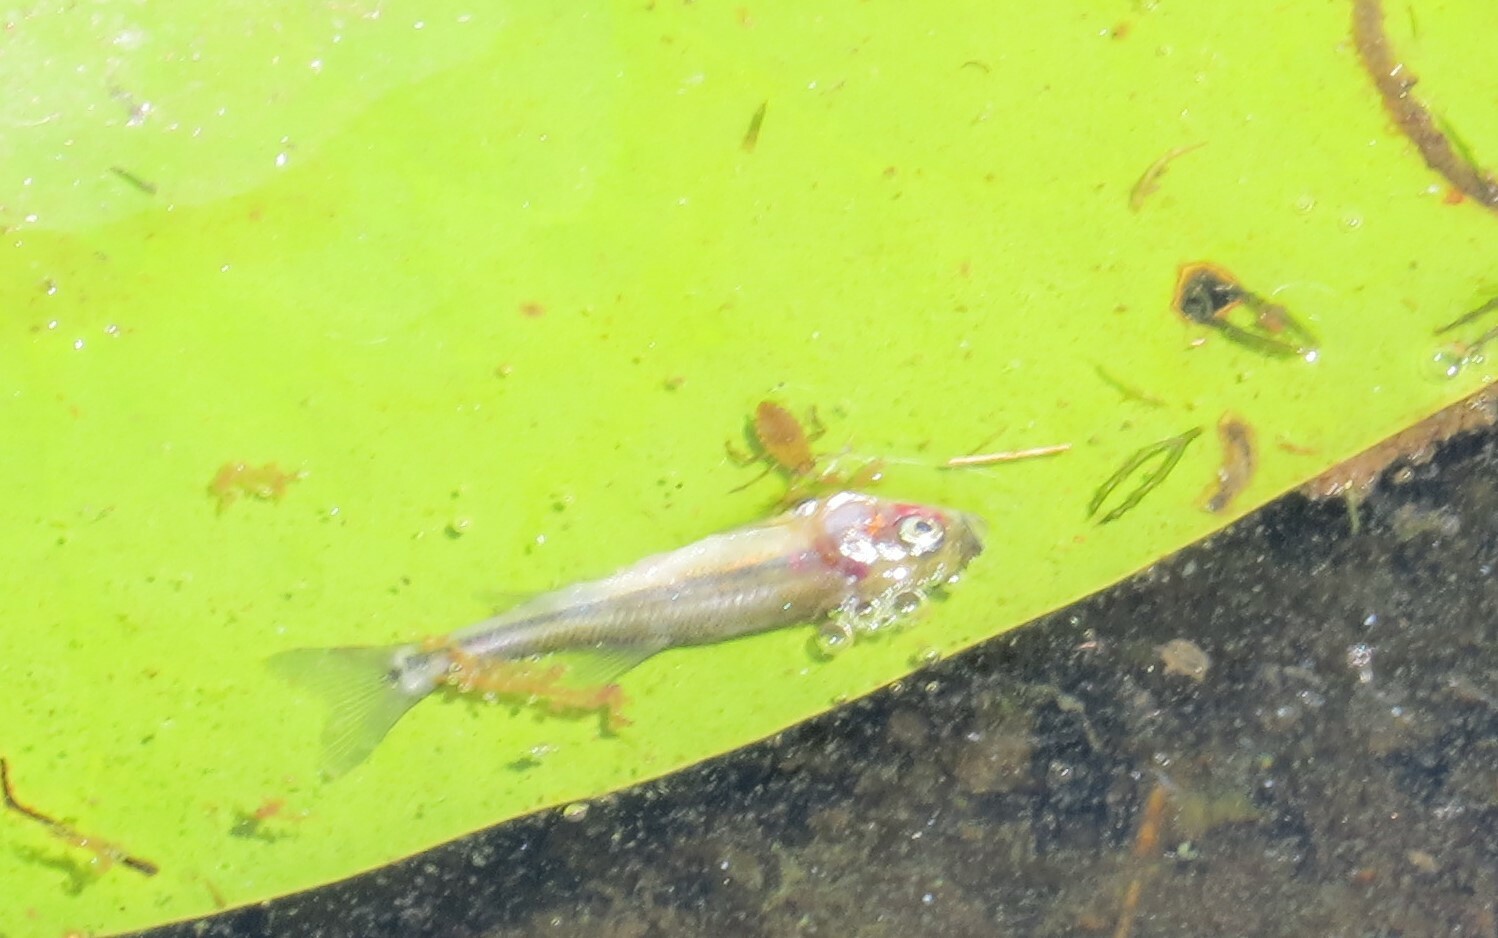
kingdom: Animalia
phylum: Chordata
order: Cypriniformes
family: Cyprinidae
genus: Pimephales
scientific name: Pimephales promelas
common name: Fathead minnow
